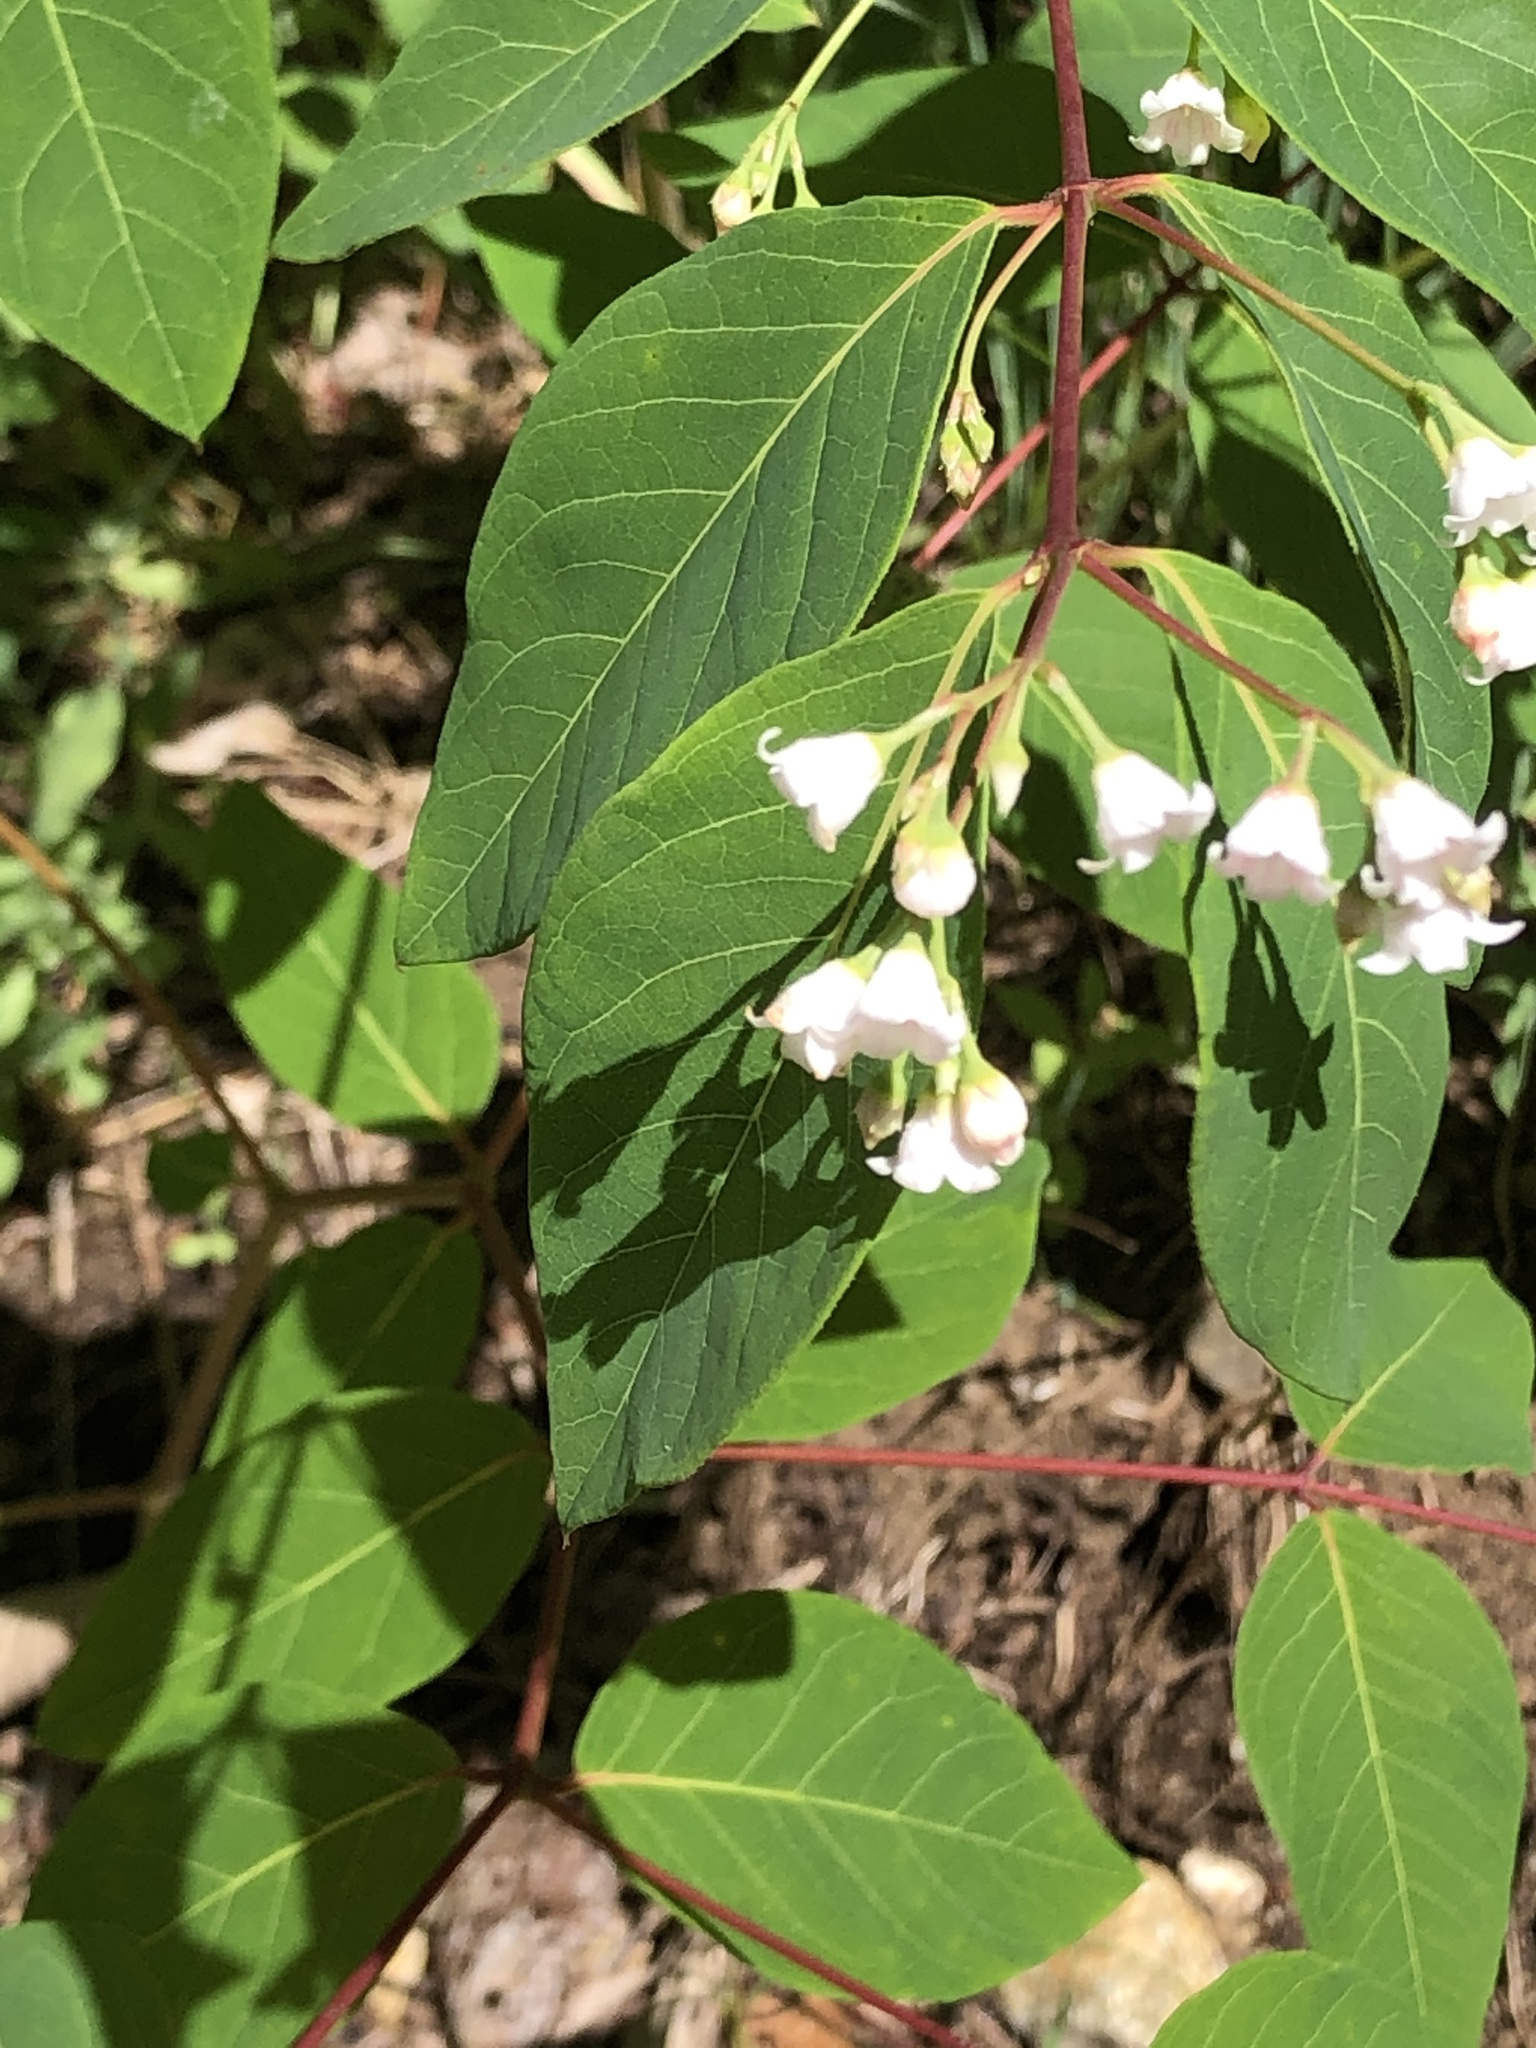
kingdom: Plantae
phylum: Tracheophyta
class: Magnoliopsida
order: Gentianales
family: Apocynaceae
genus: Apocynum
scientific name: Apocynum androsaemifolium
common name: Spreading dogbane
